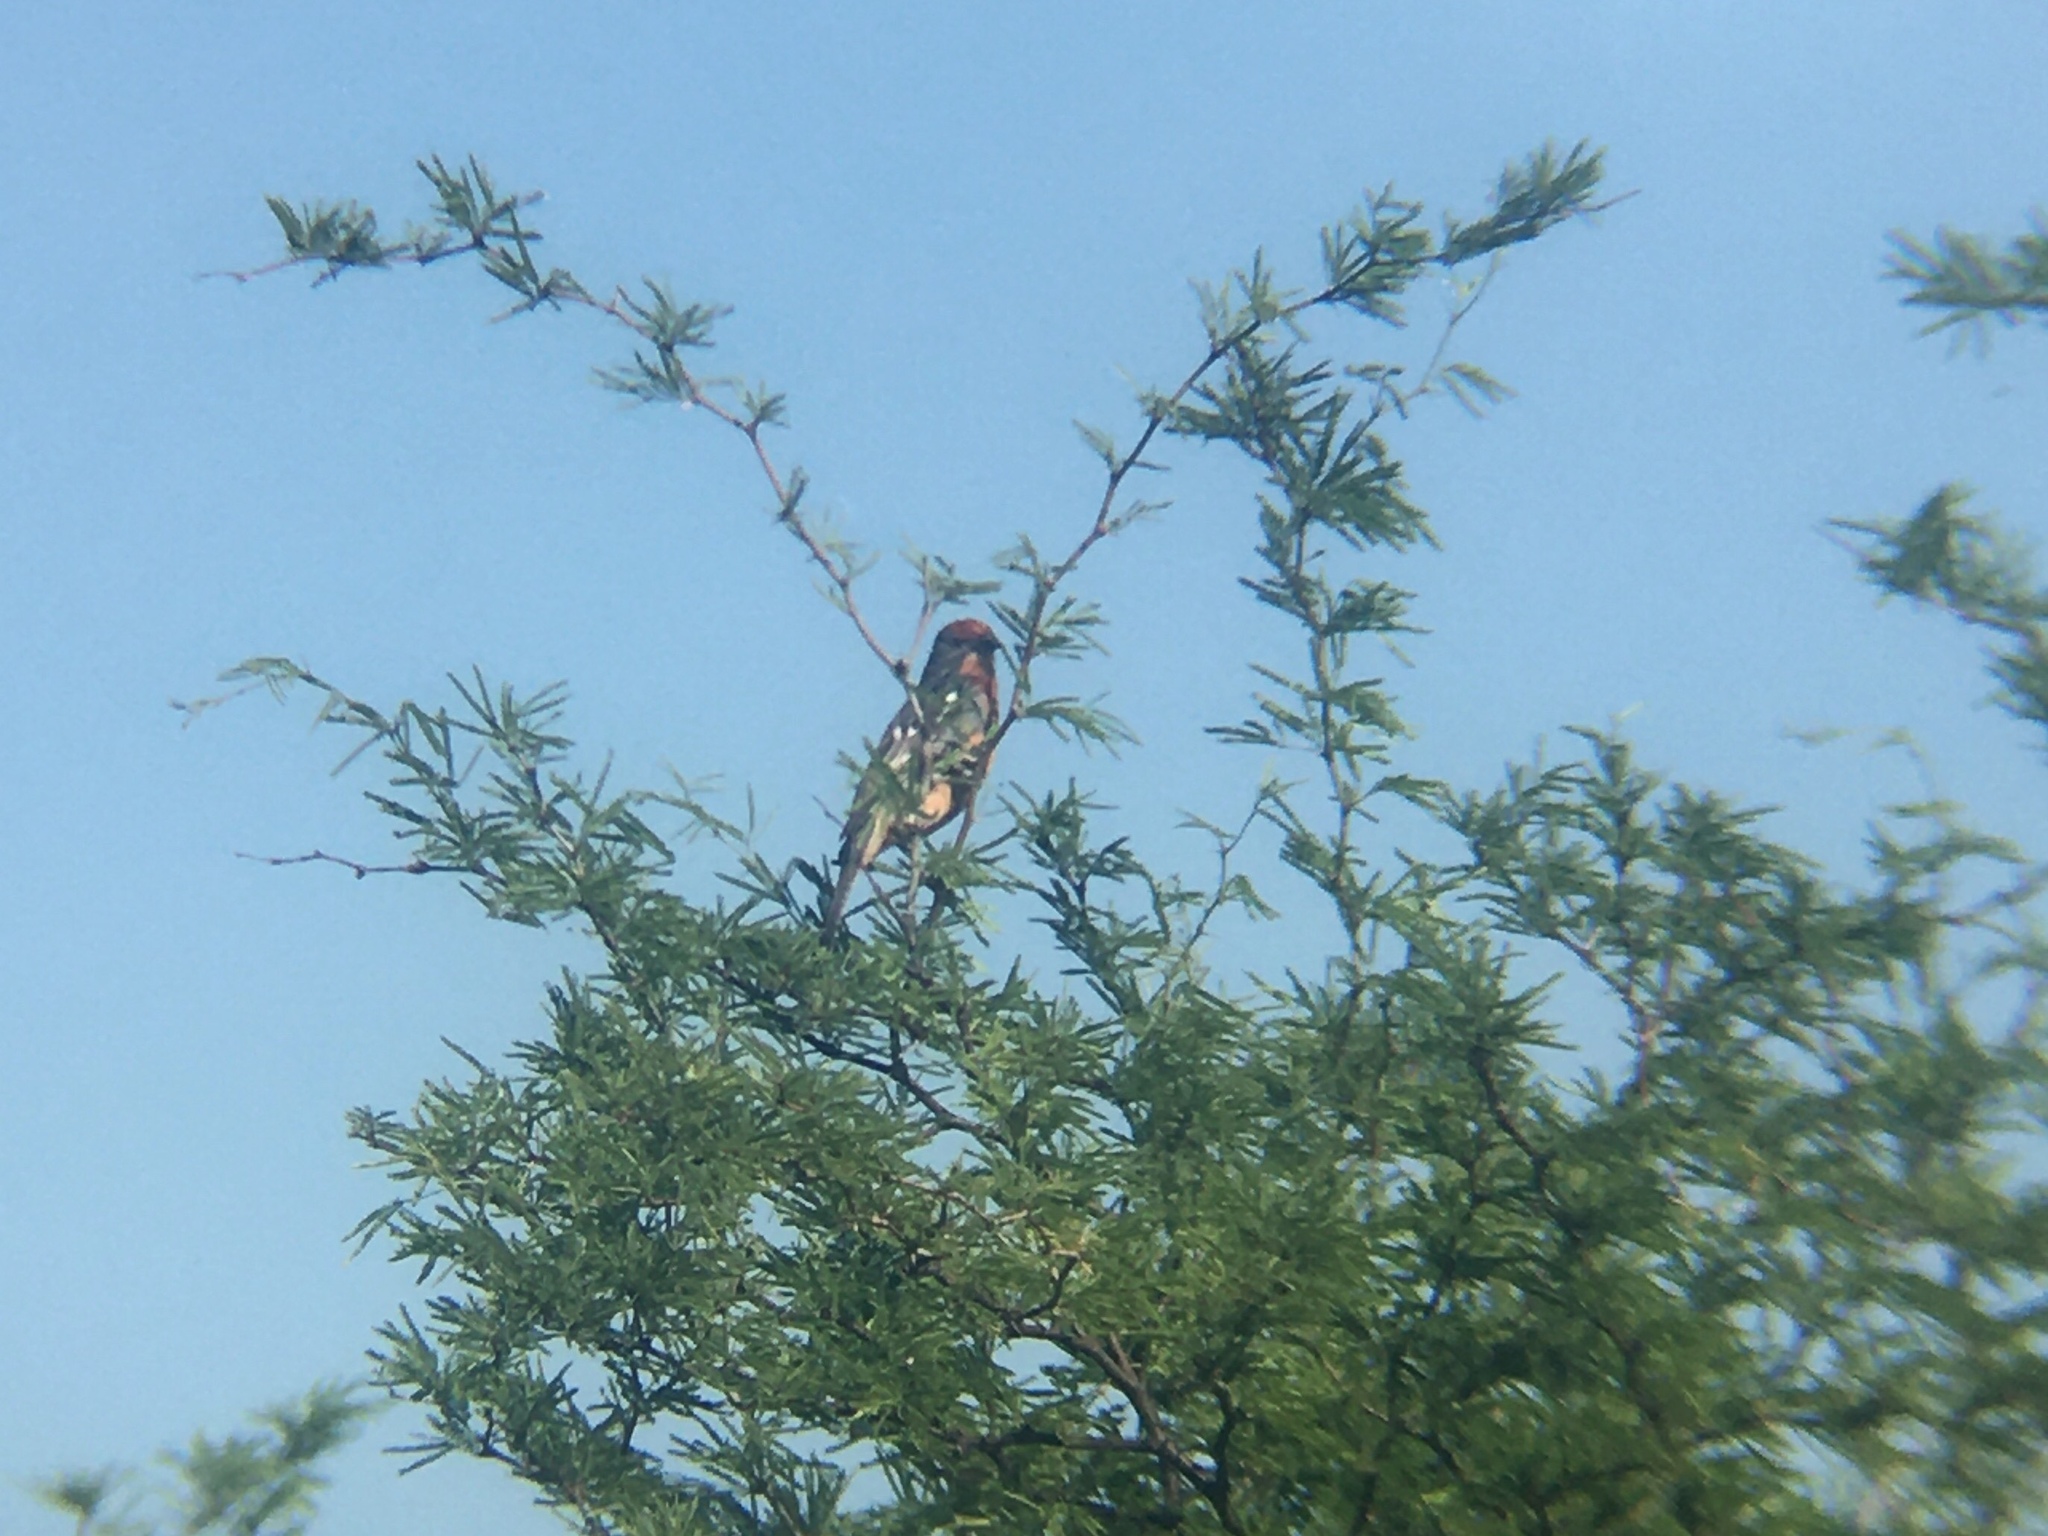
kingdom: Animalia
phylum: Chordata
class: Aves
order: Passeriformes
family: Cotingidae
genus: Phytotoma
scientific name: Phytotoma rutila
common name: White-tipped plantcutter
